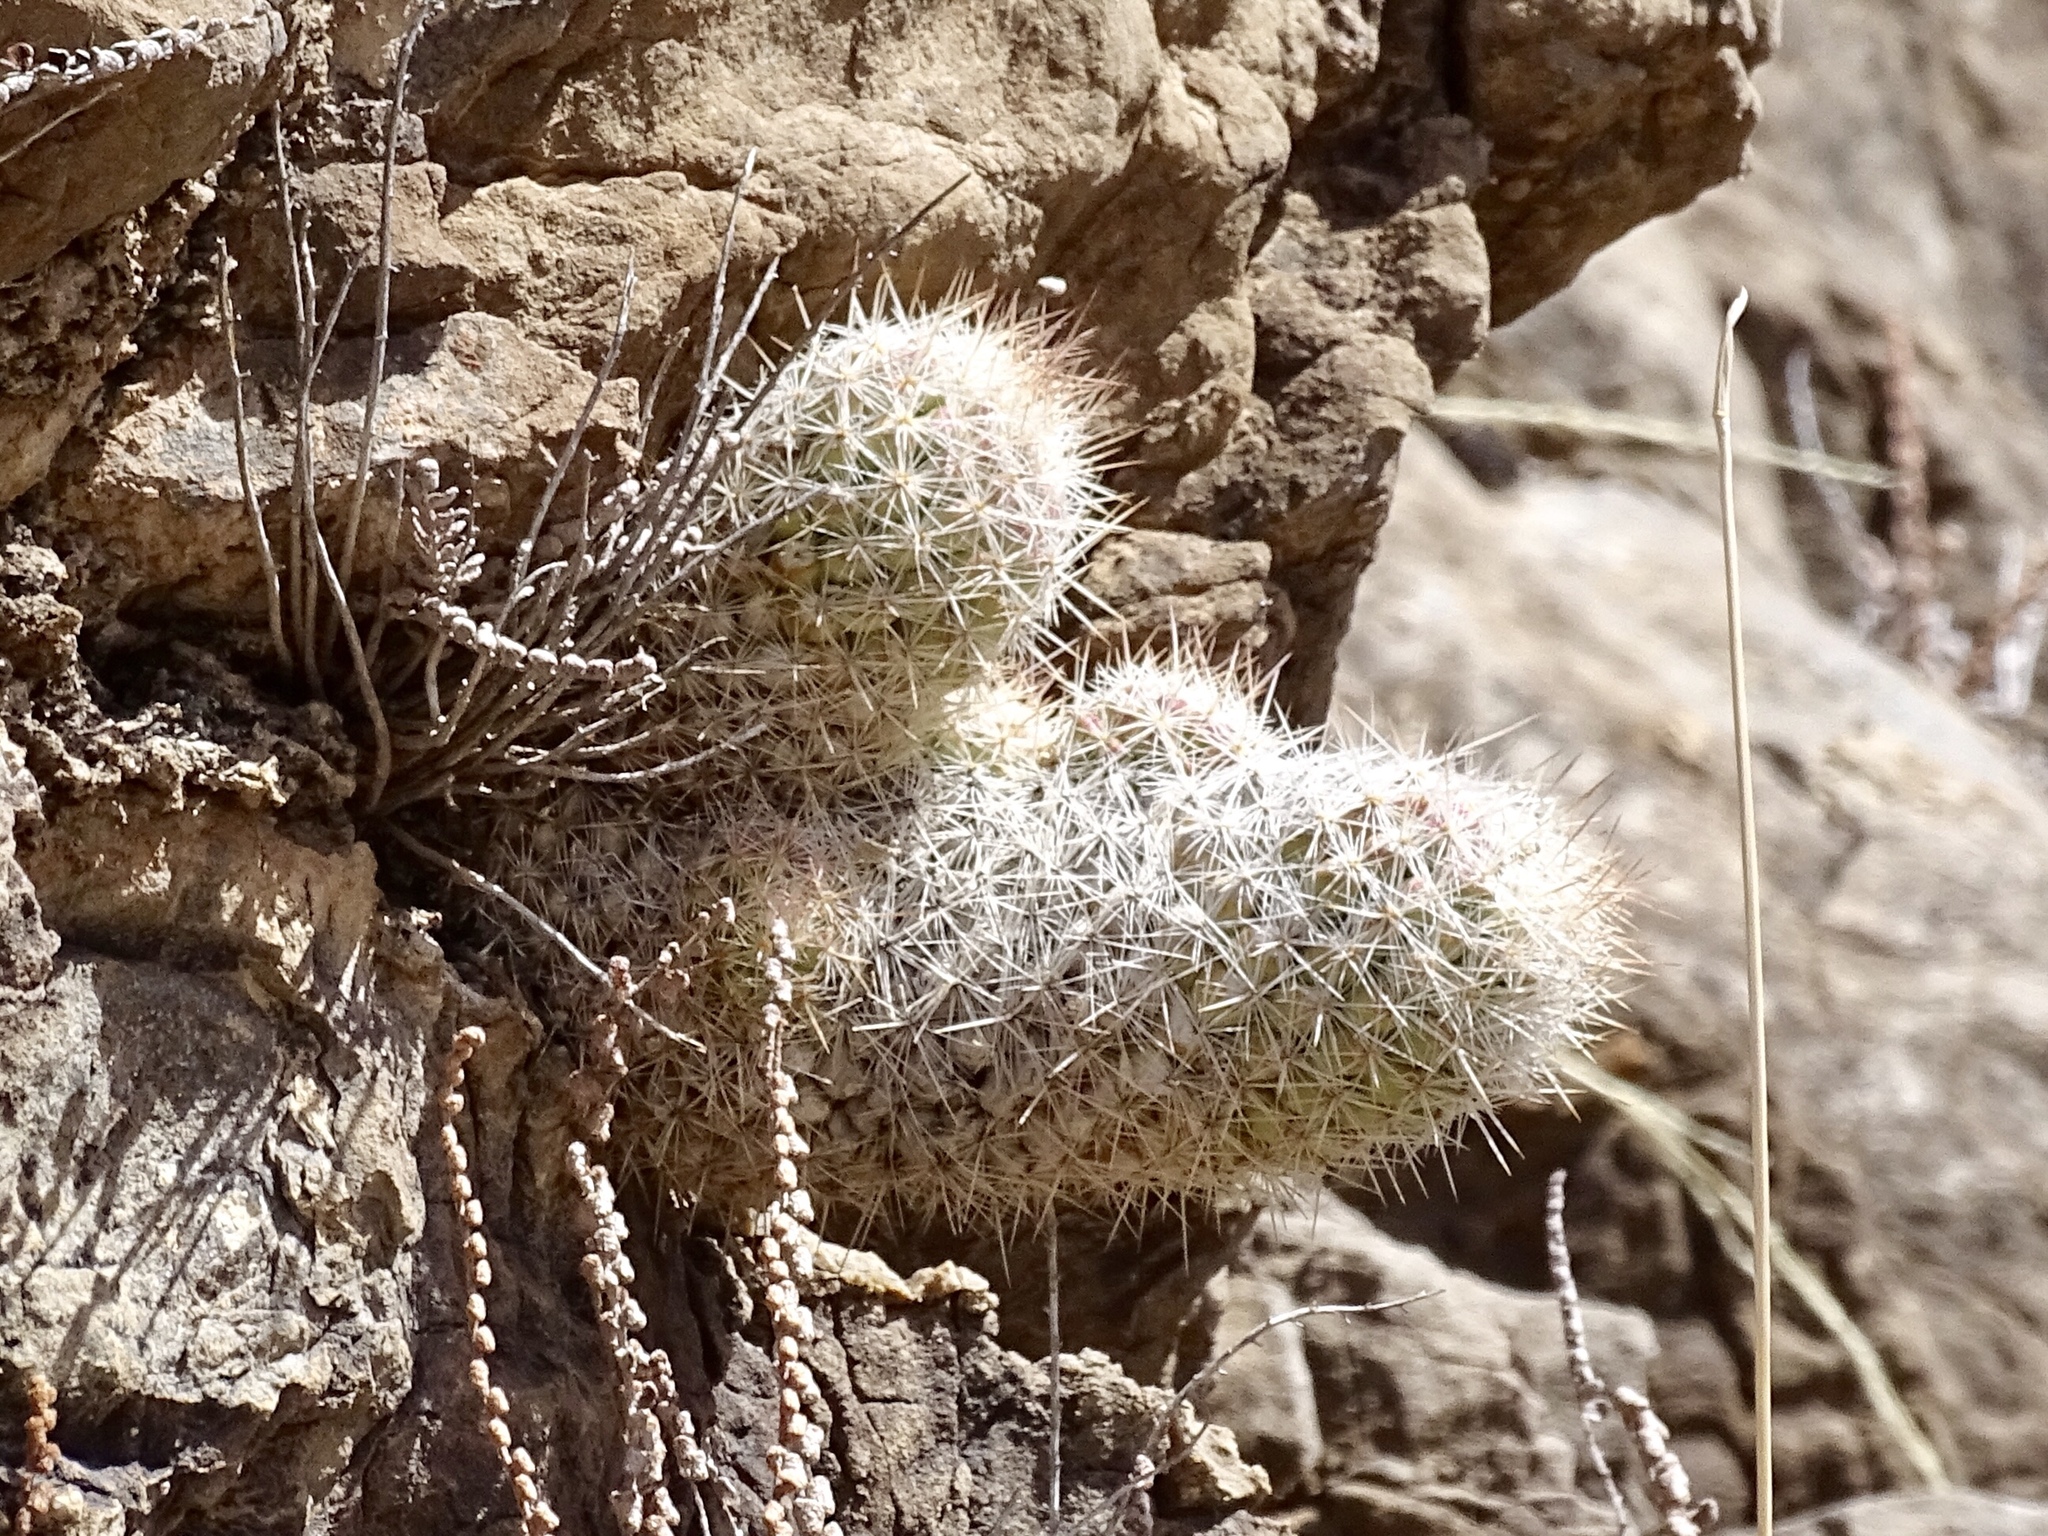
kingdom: Plantae
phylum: Tracheophyta
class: Magnoliopsida
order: Caryophyllales
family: Cactaceae
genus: Pelecyphora
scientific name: Pelecyphora tuberculosa
